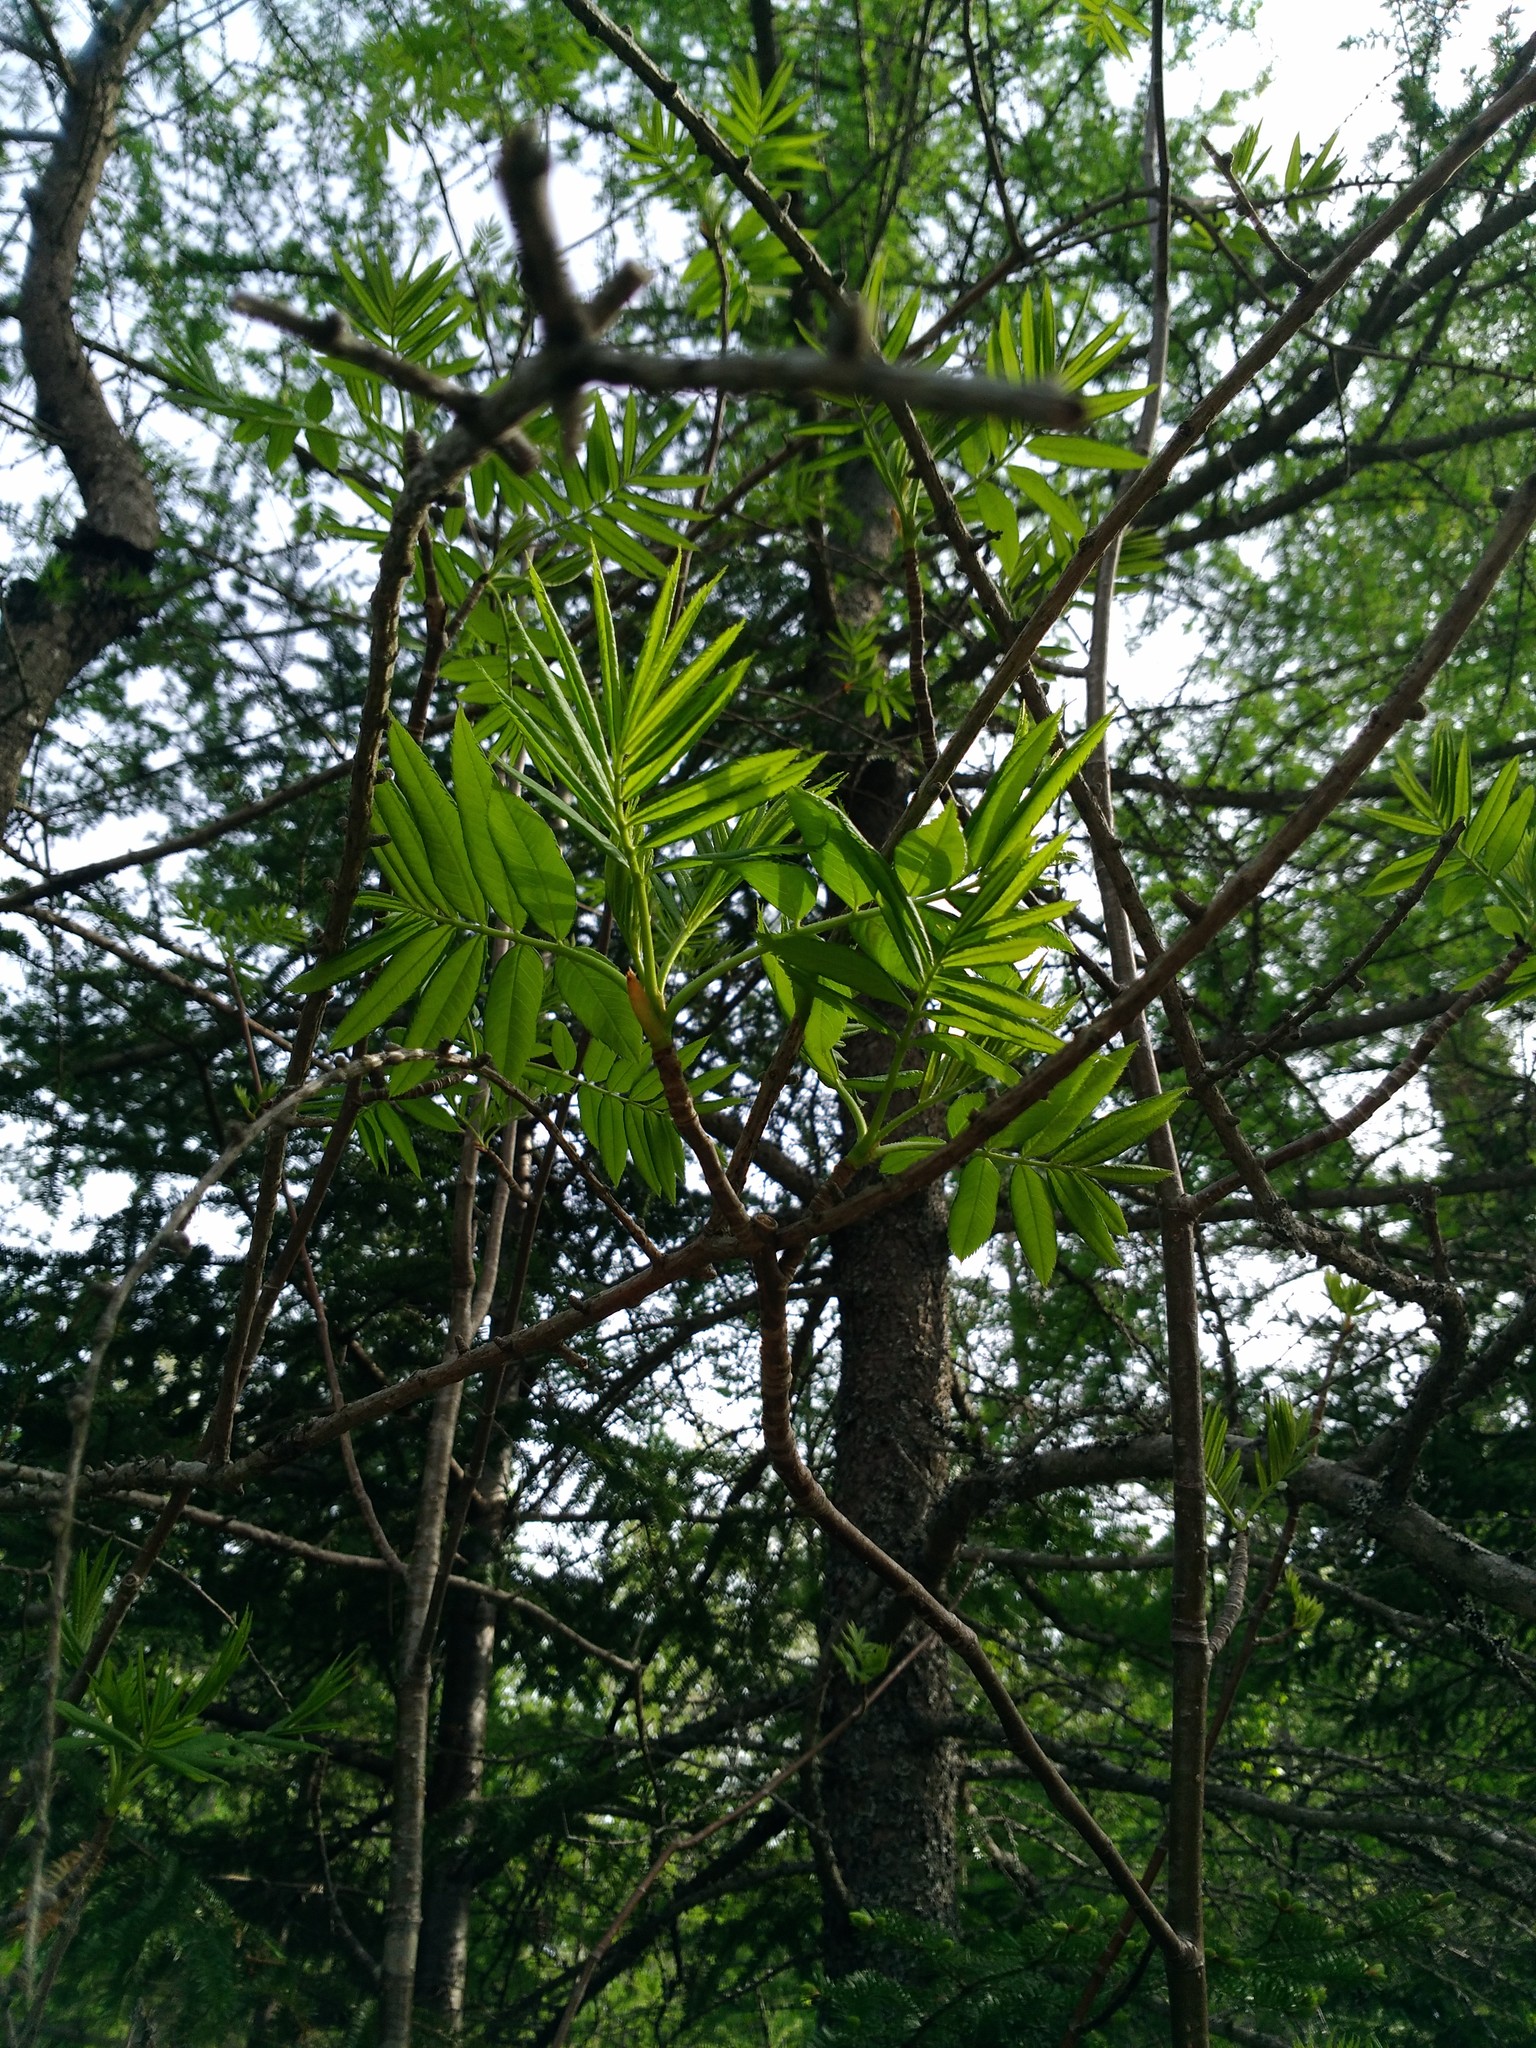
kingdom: Plantae
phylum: Tracheophyta
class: Magnoliopsida
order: Rosales
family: Rosaceae
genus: Sorbus
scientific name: Sorbus americana
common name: American mountain-ash
